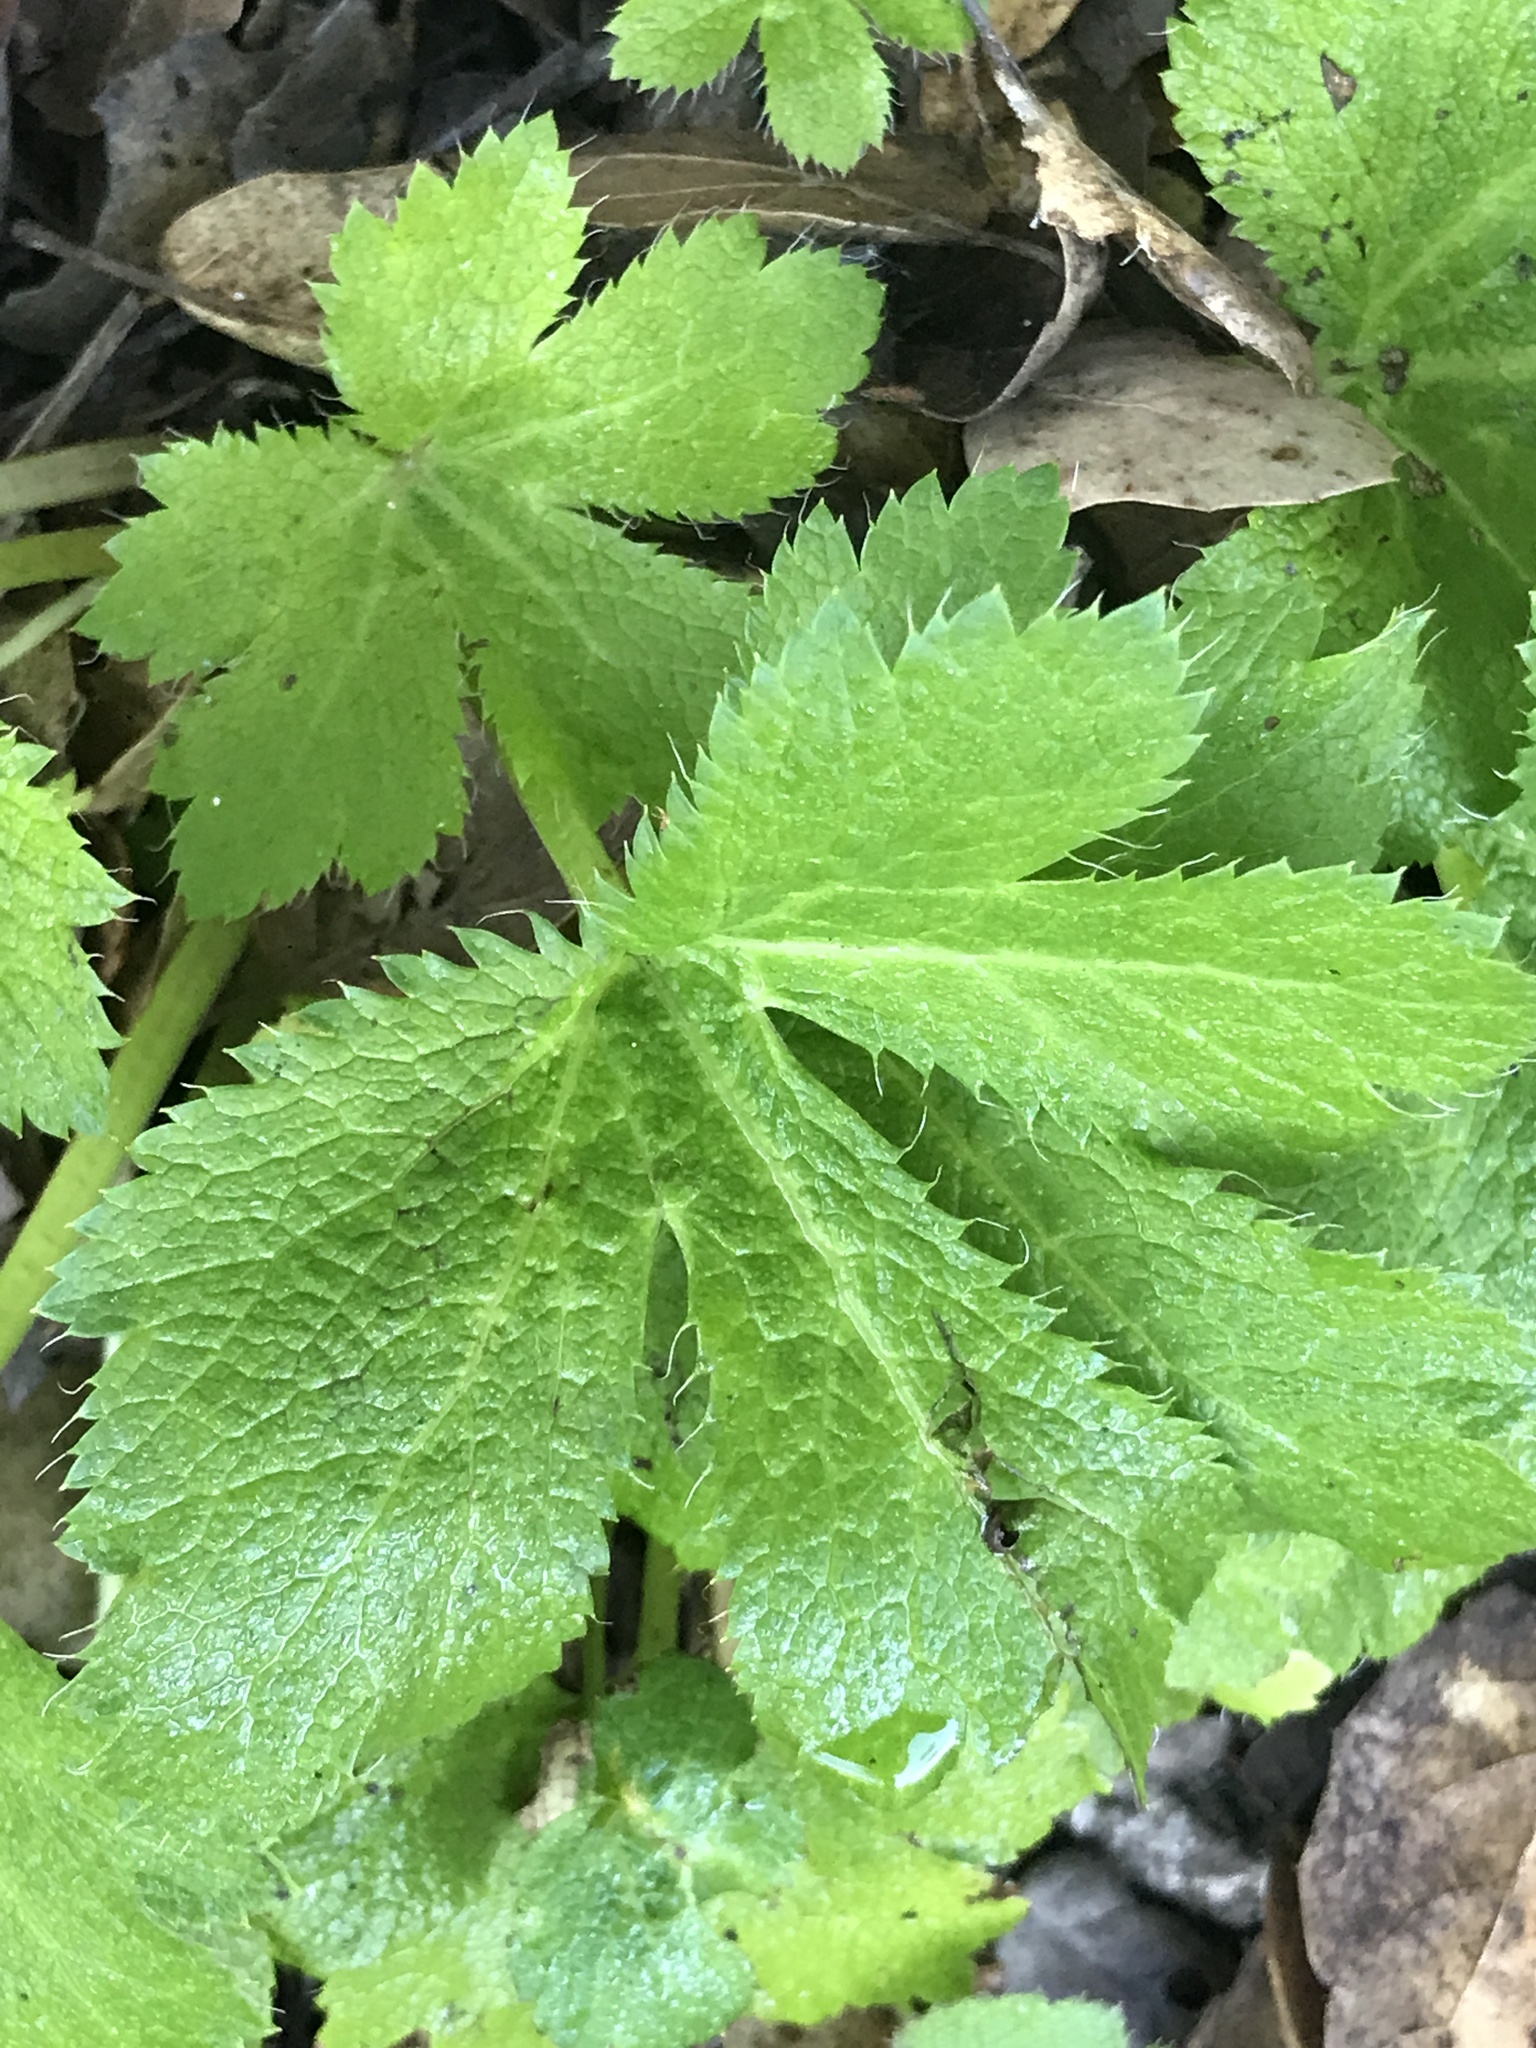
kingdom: Plantae
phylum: Tracheophyta
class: Magnoliopsida
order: Apiales
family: Apiaceae
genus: Sanicula
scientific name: Sanicula crassicaulis
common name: Western snakeroot
